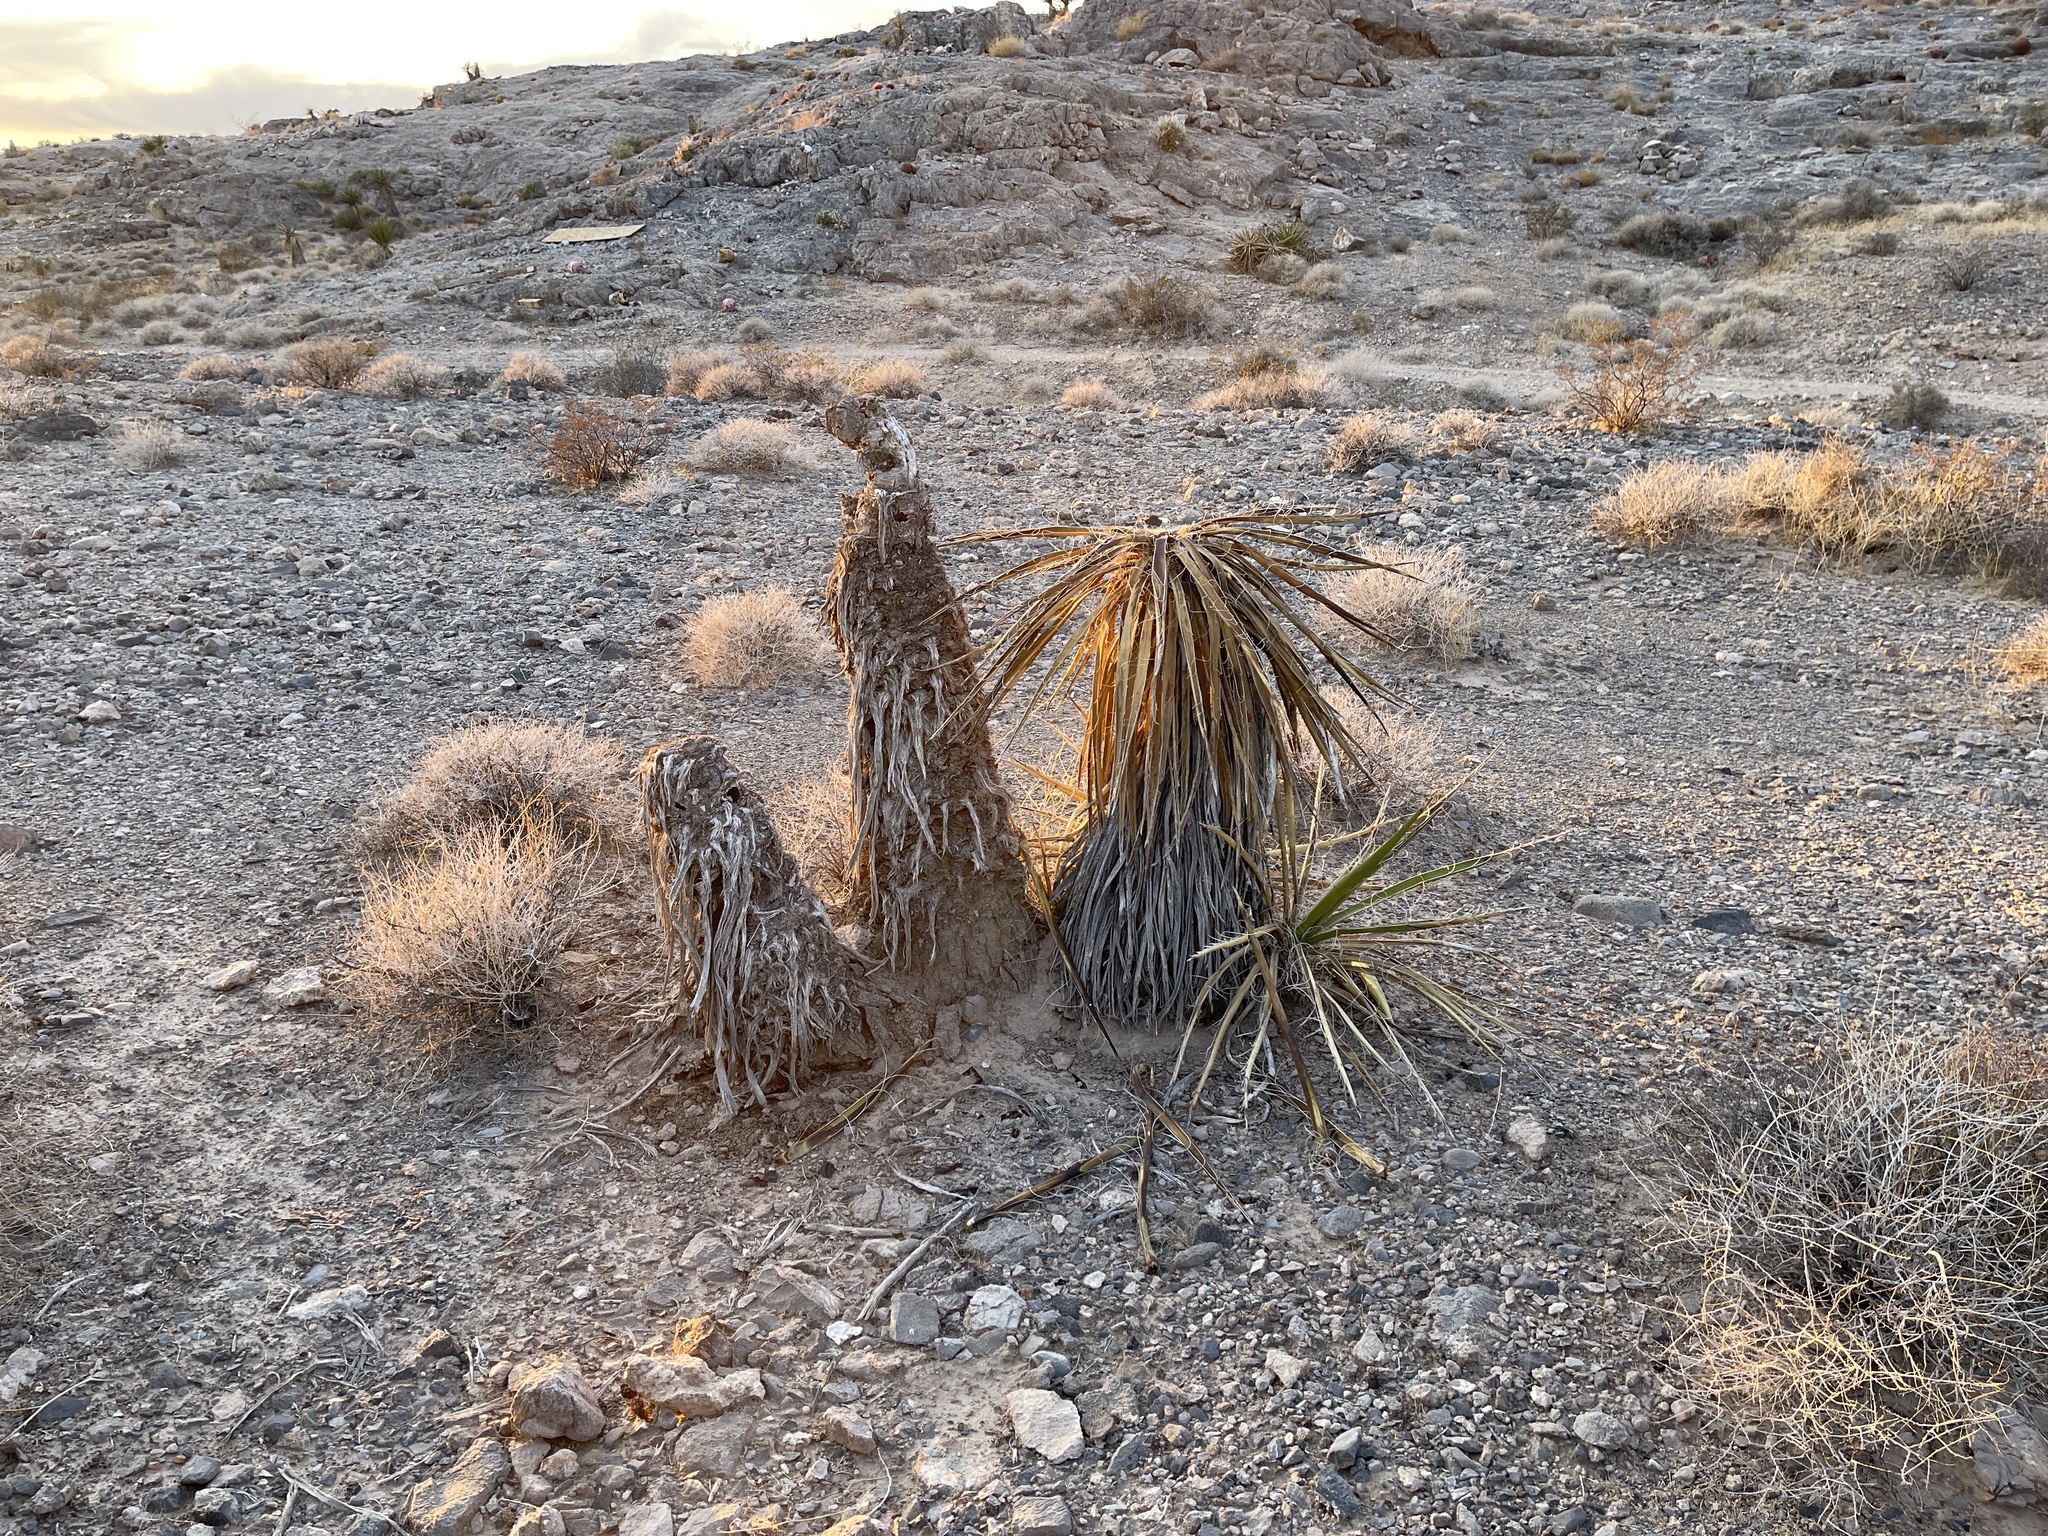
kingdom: Plantae
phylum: Tracheophyta
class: Liliopsida
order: Asparagales
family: Asparagaceae
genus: Yucca
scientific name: Yucca schidigera
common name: Mojave yucca
